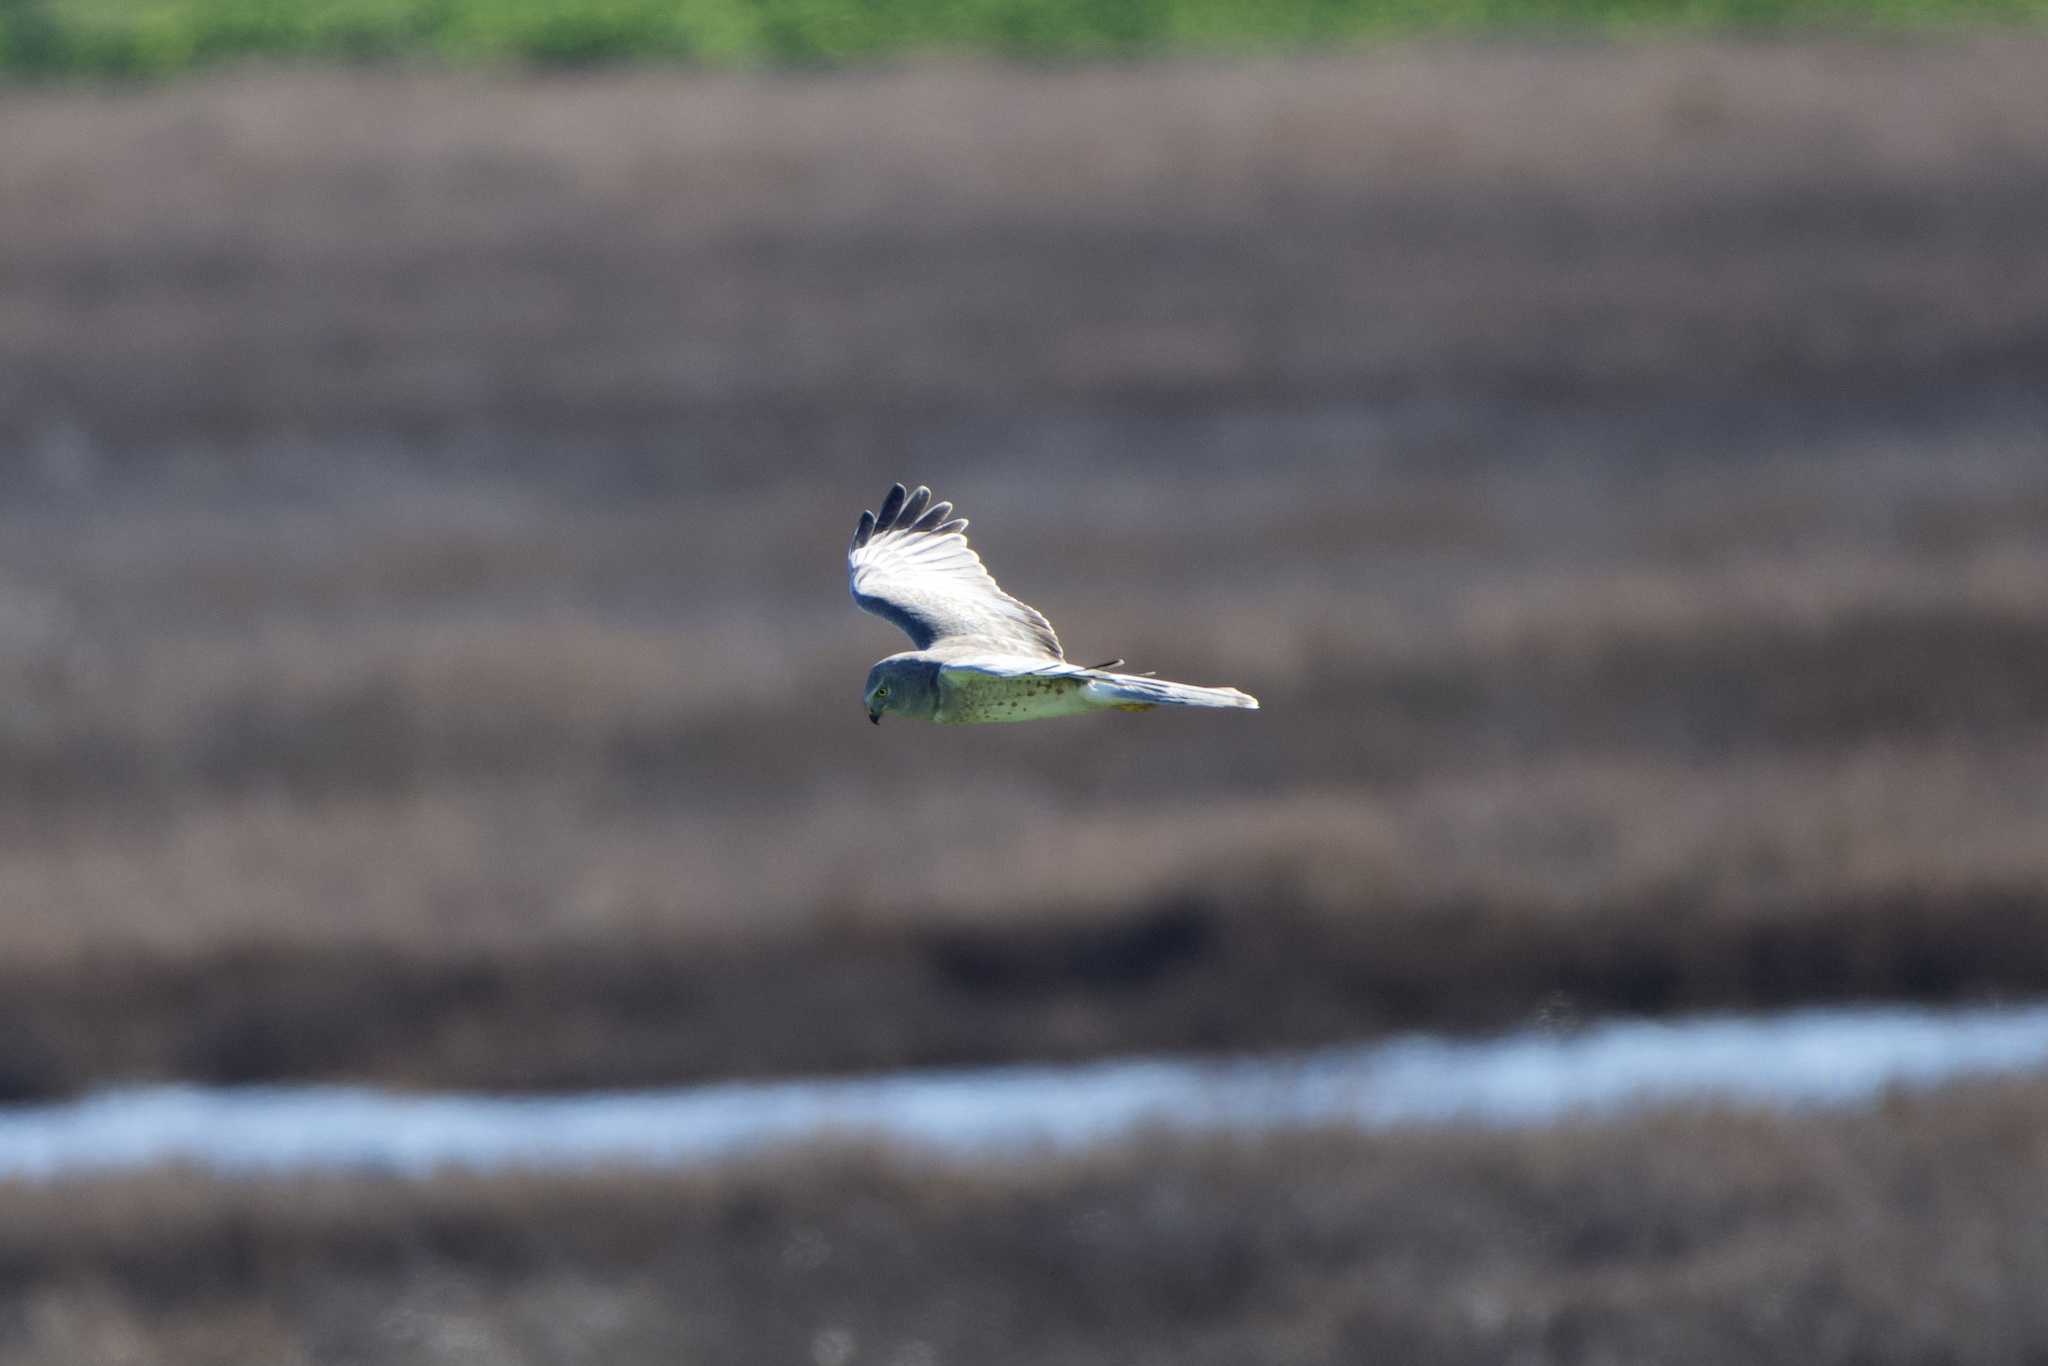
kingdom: Animalia
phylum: Chordata
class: Aves
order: Accipitriformes
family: Accipitridae
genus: Circus
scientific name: Circus cyaneus
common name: Hen harrier
